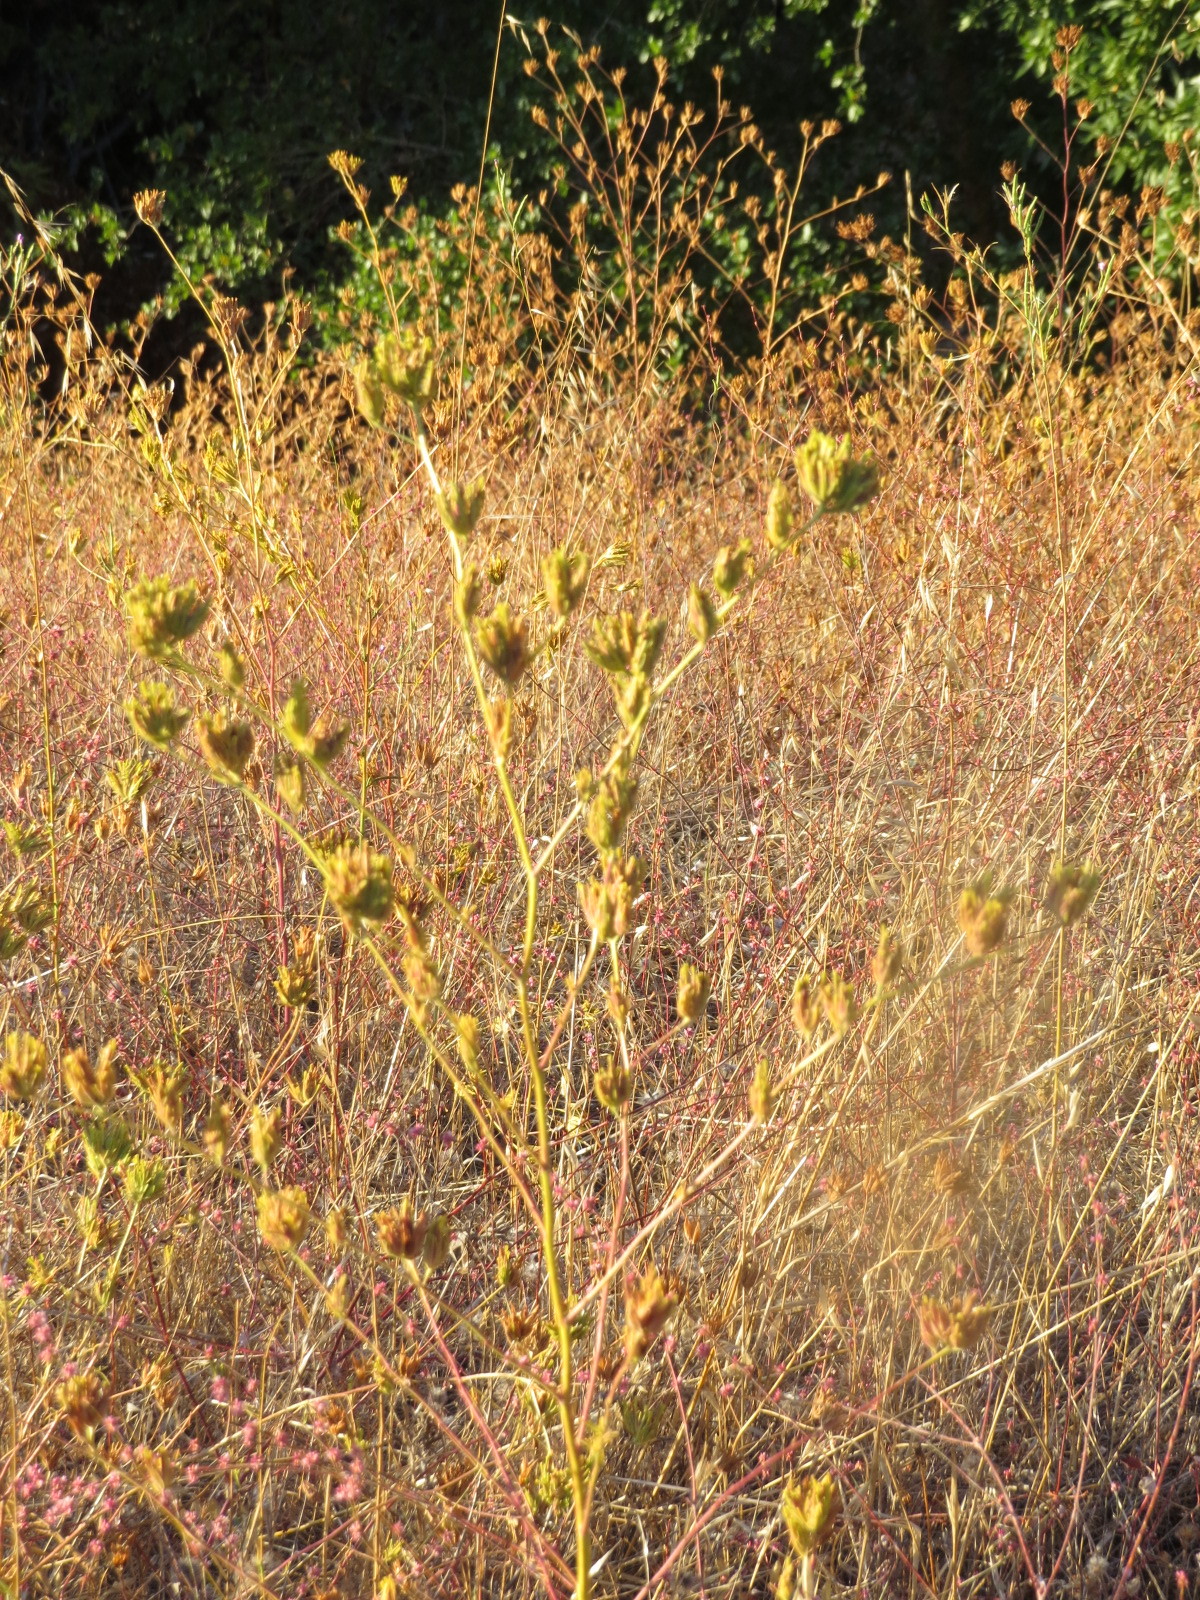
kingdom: Plantae
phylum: Tracheophyta
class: Magnoliopsida
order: Lamiales
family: Orobanchaceae
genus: Cordylanthus
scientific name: Cordylanthus rigidus
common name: Stiff-branch bird's-beak
